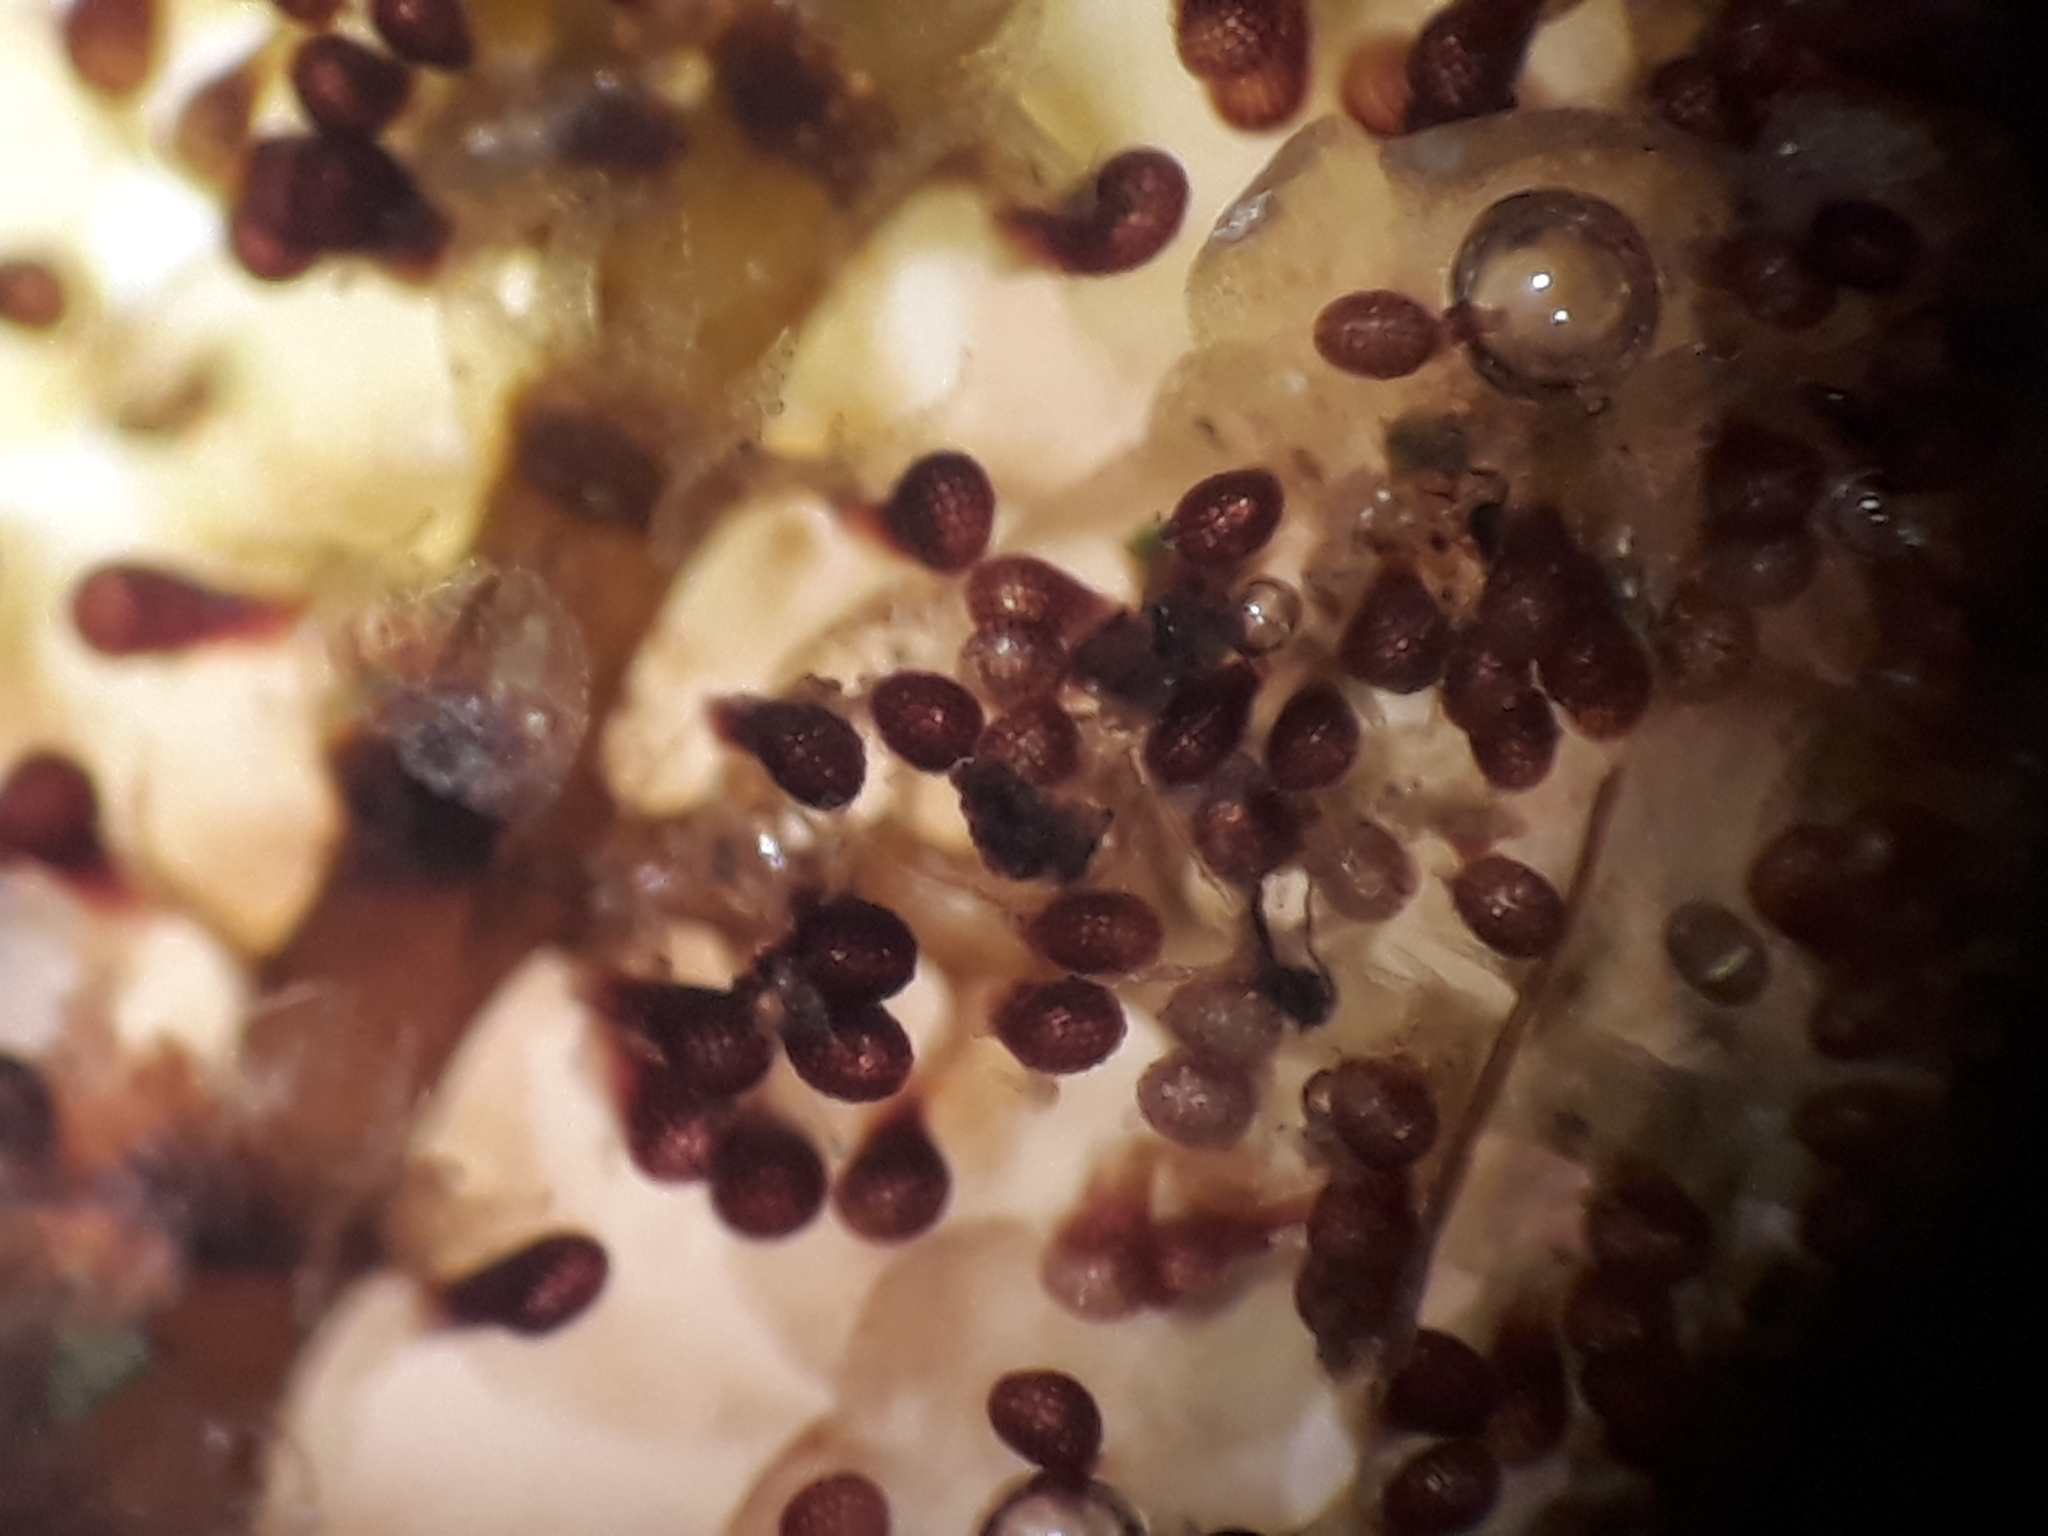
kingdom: Plantae
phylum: Marchantiophyta
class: Jungermanniopsida
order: Porellales
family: Lepidolaenaceae
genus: Lepidolaena
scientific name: Lepidolaena taylorii
